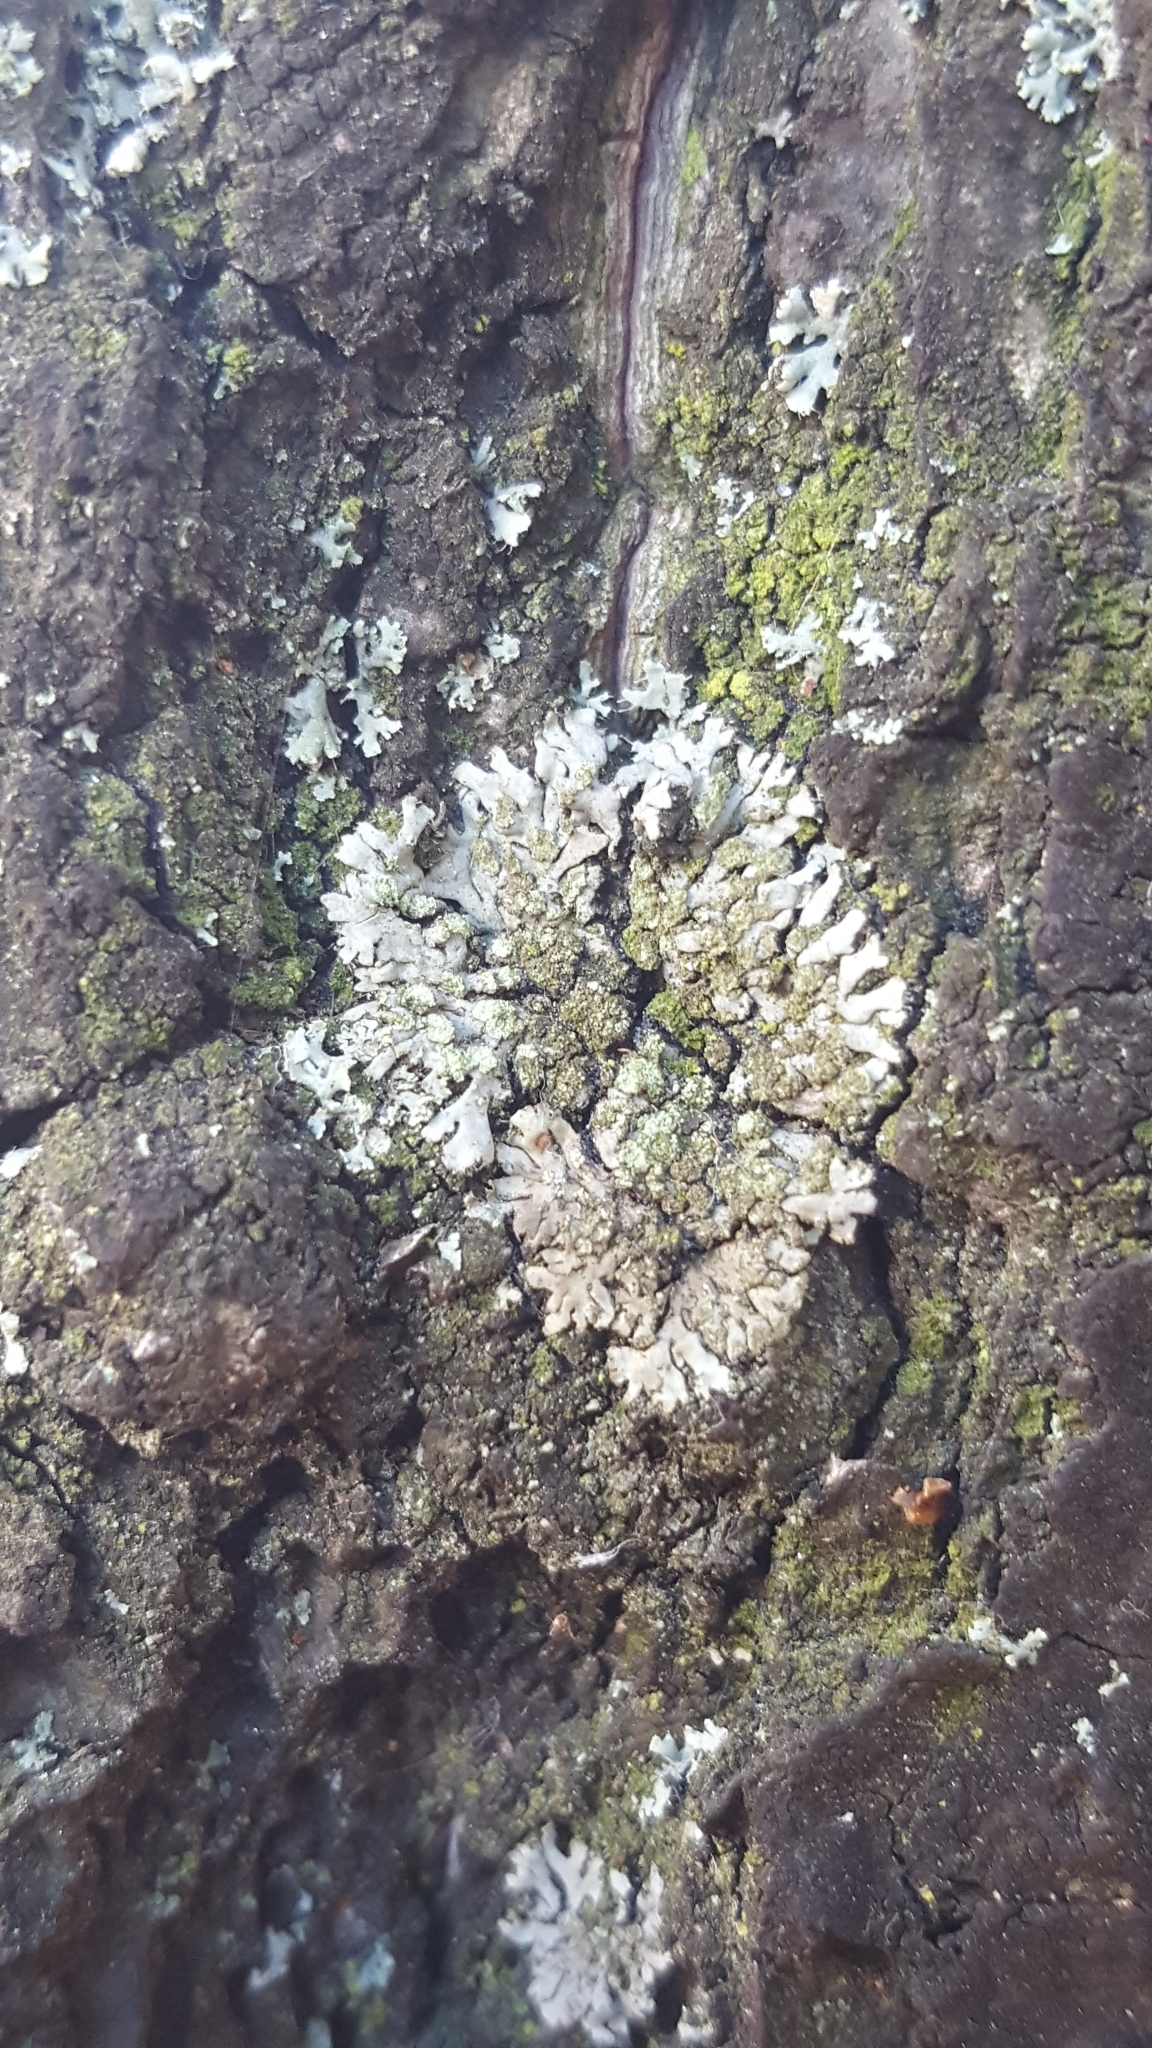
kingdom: Fungi
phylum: Ascomycota
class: Lecanoromycetes
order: Caliciales
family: Physciaceae
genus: Phaeophyscia
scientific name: Phaeophyscia orbicularis
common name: Mealy shadow lichen
